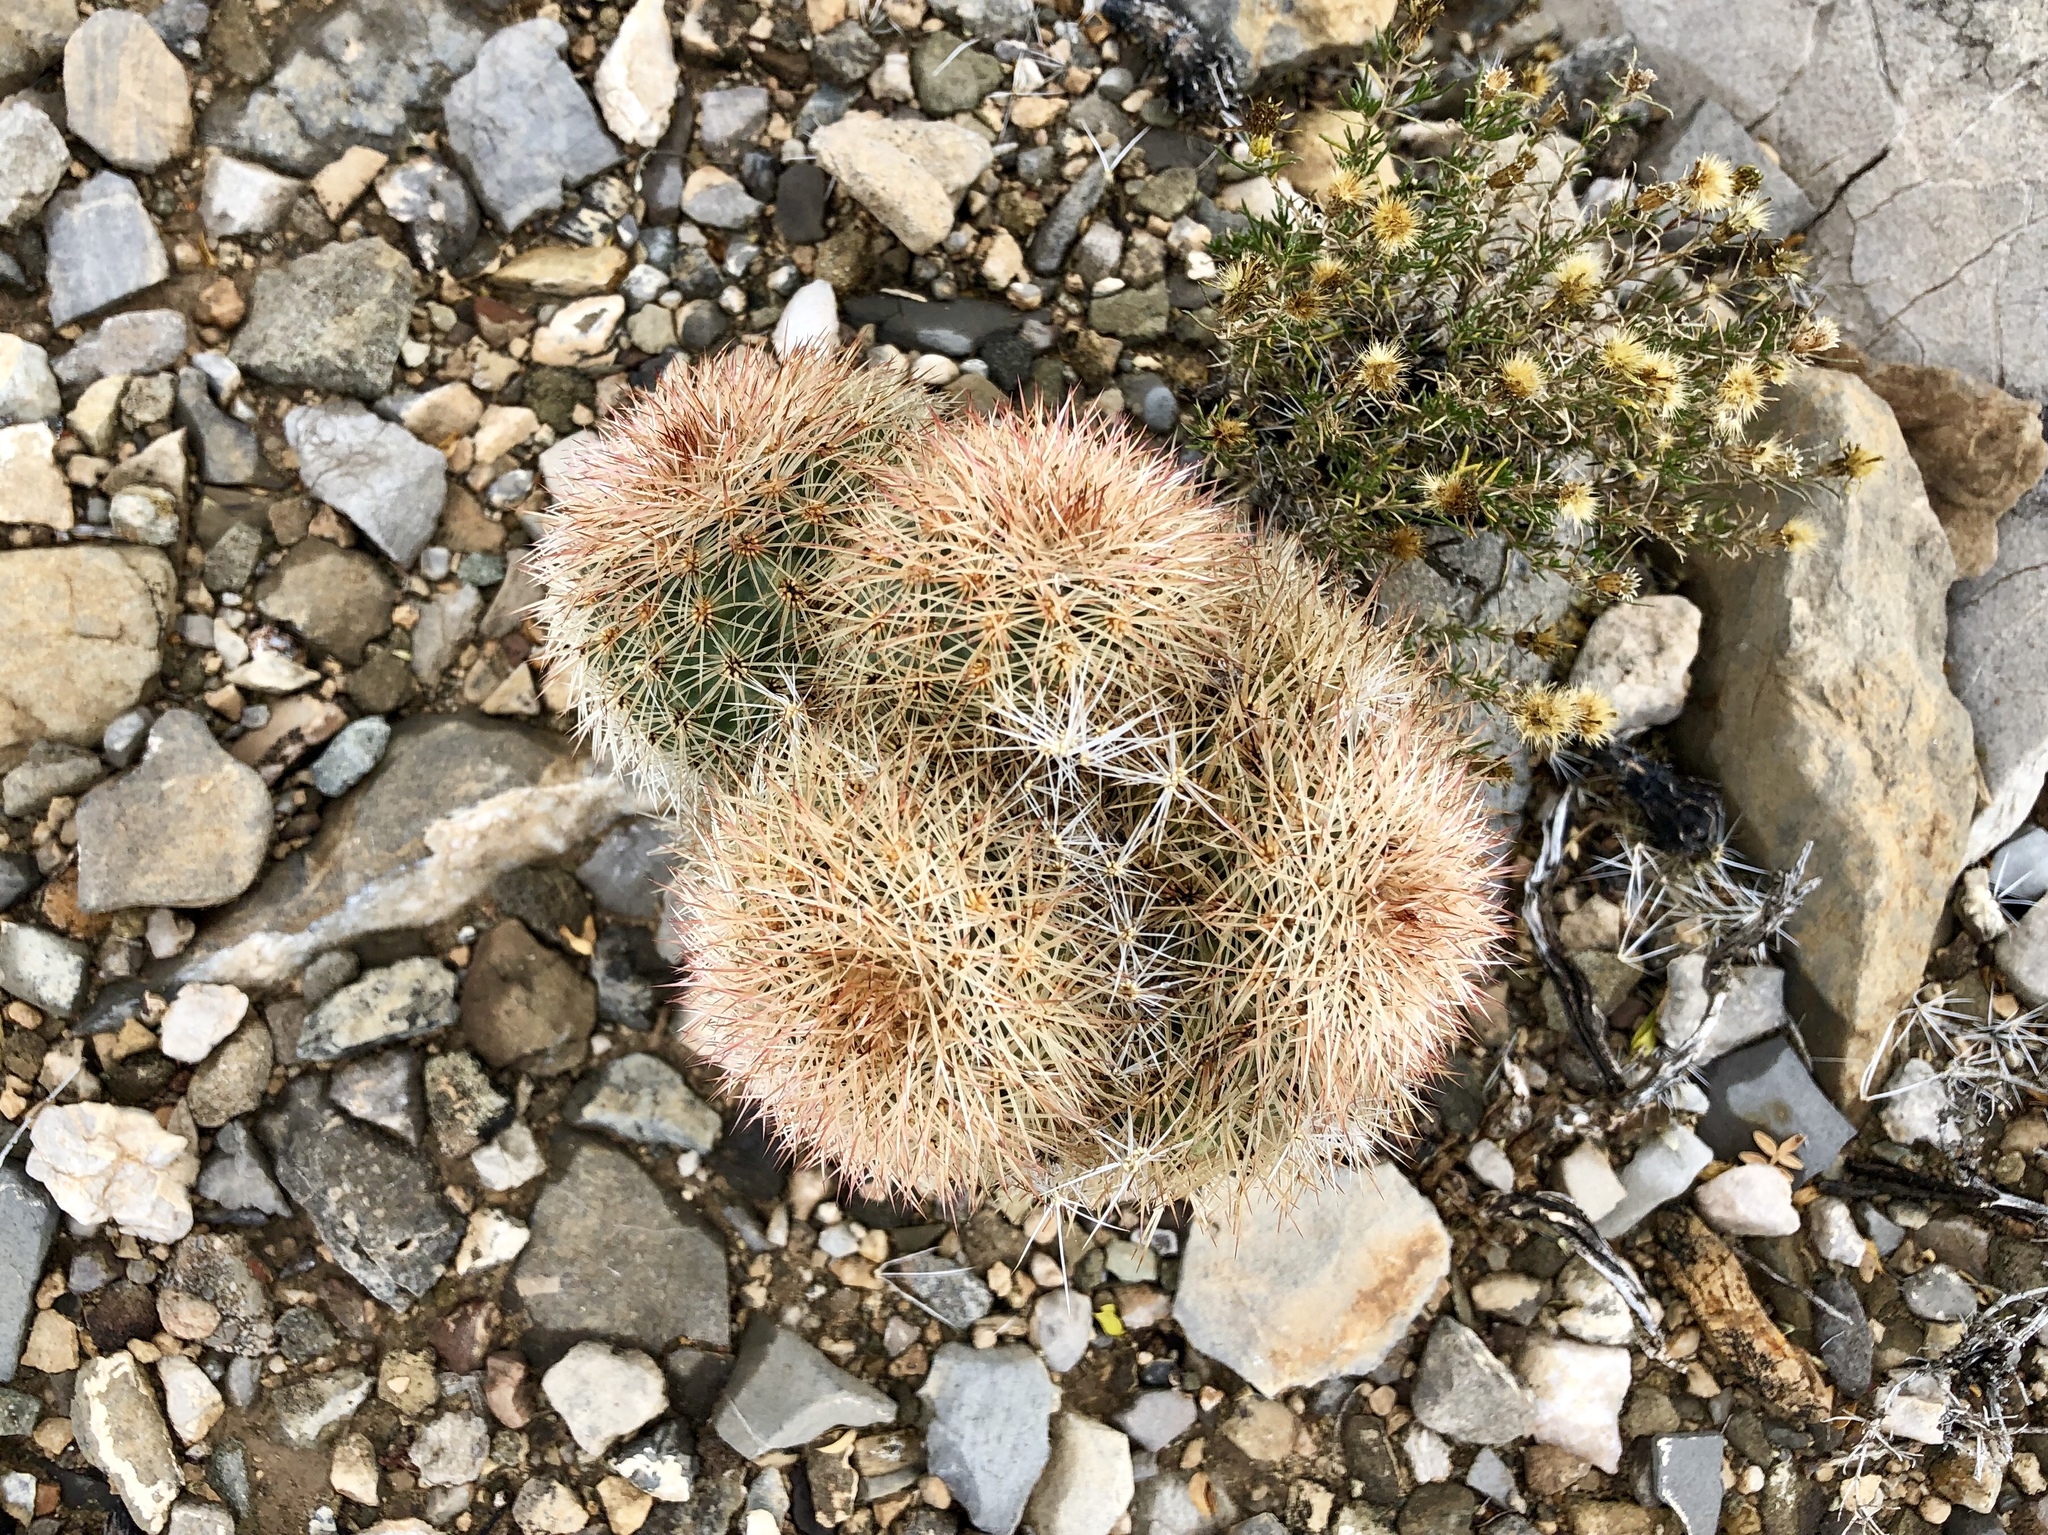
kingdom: Plantae
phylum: Tracheophyta
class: Magnoliopsida
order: Caryophyllales
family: Cactaceae
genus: Echinocereus
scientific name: Echinocereus dasyacanthus
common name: Spiny hedgehog cactus
